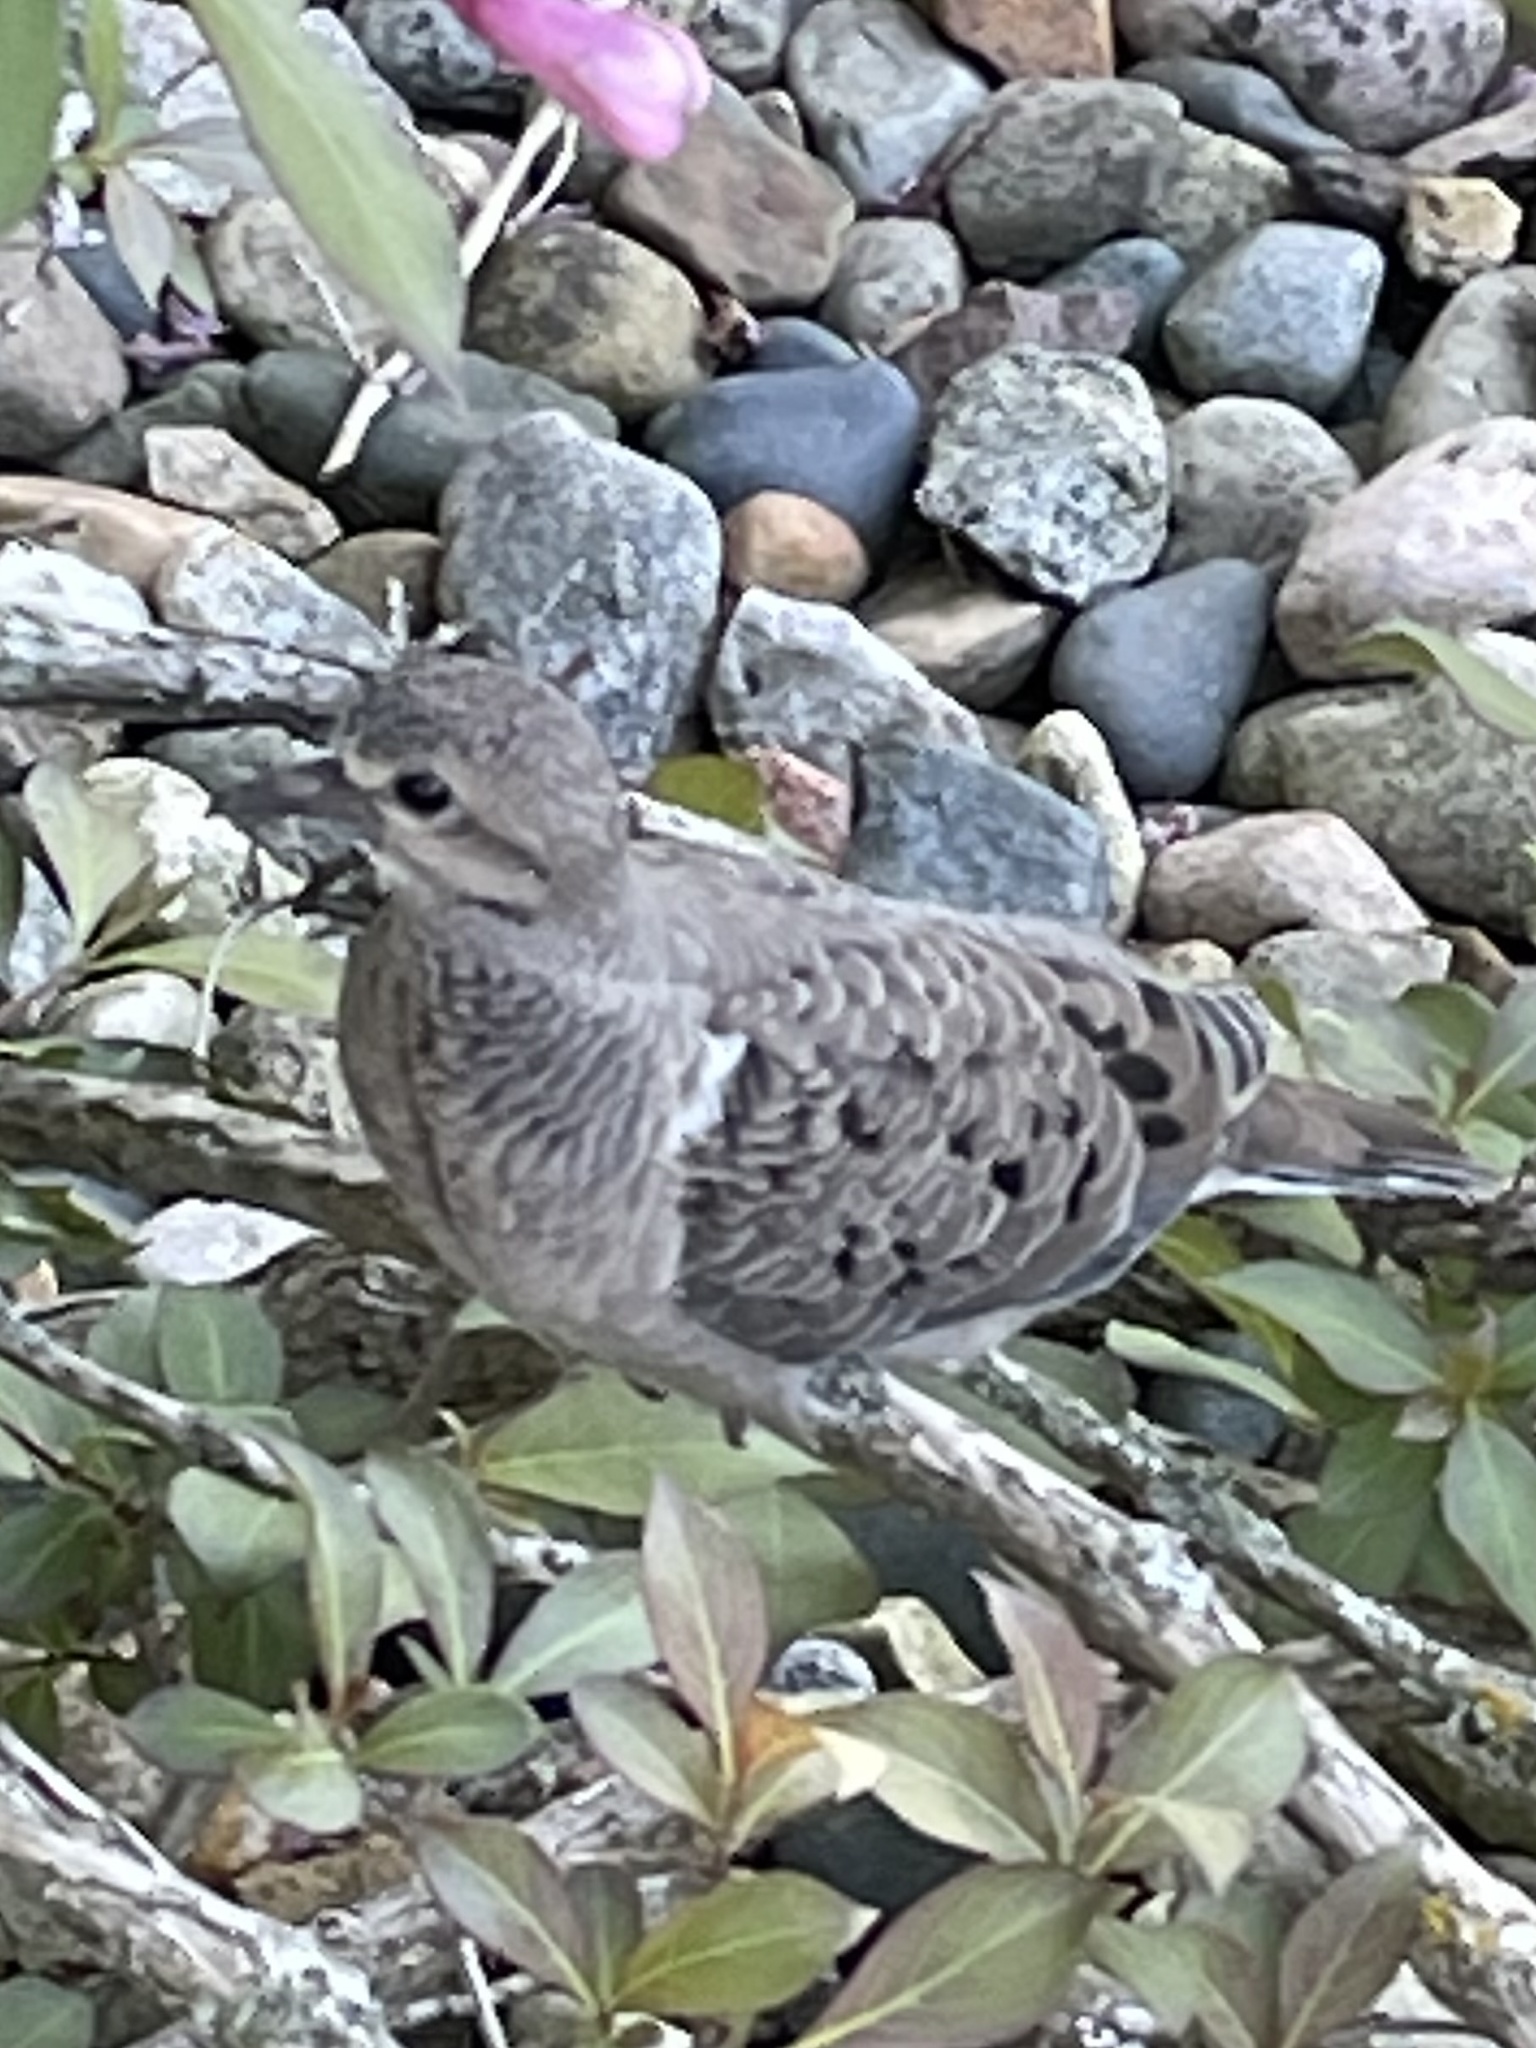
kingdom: Animalia
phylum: Chordata
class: Aves
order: Columbiformes
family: Columbidae
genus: Zenaida
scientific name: Zenaida macroura
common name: Mourning dove
